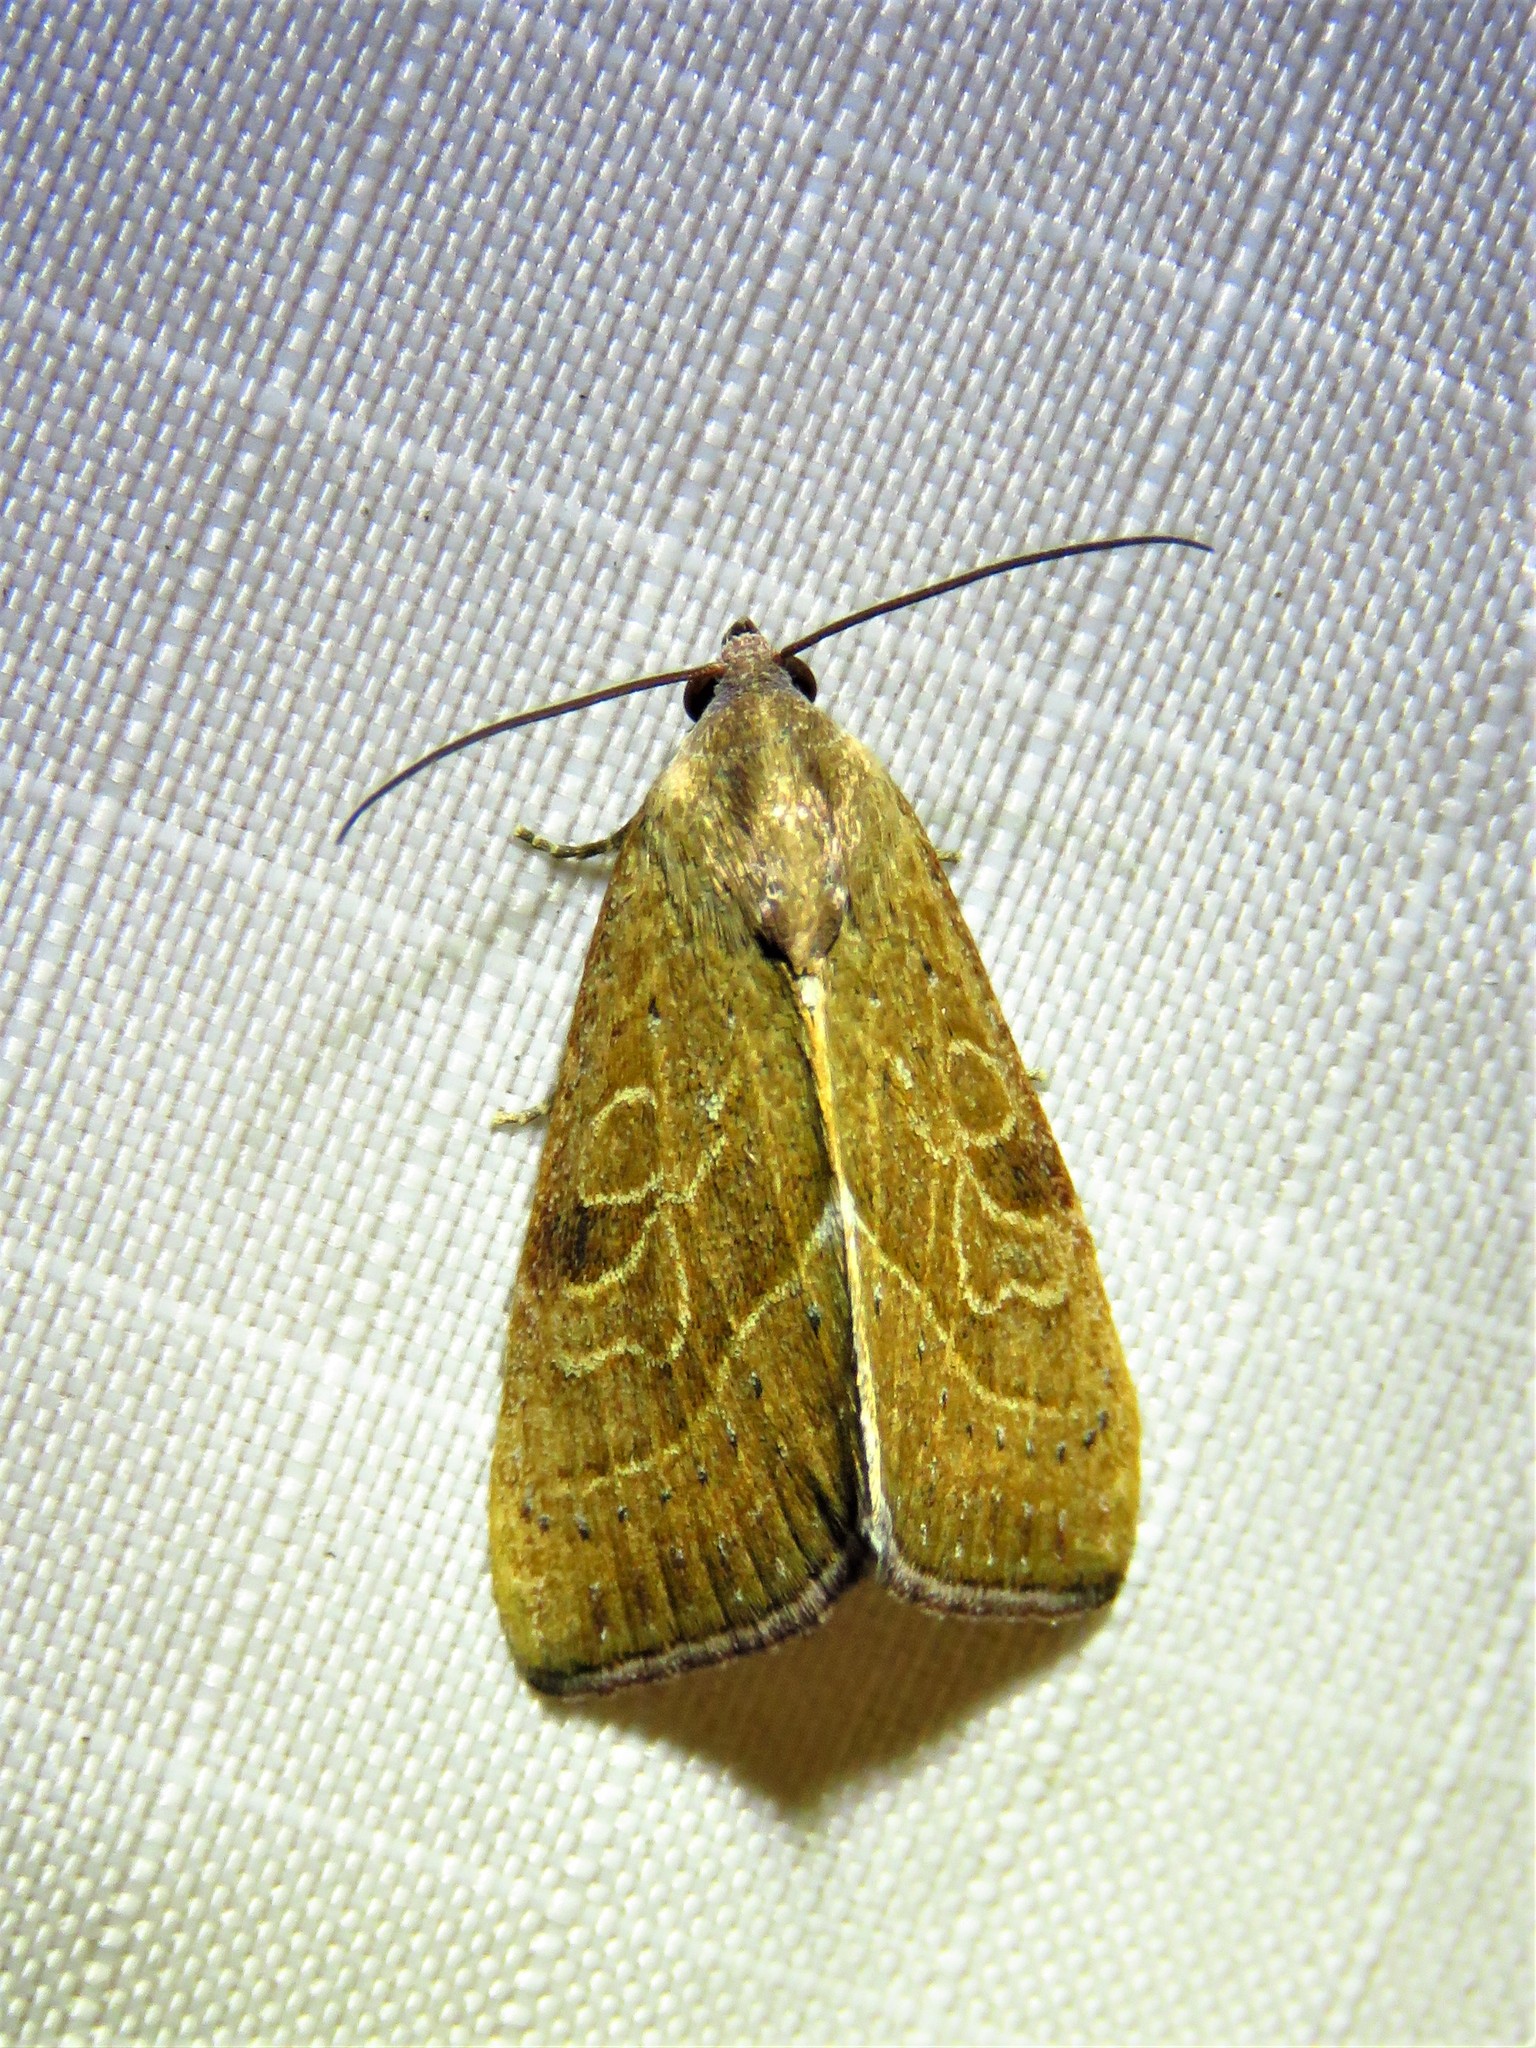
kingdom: Animalia
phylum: Arthropoda
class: Insecta
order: Lepidoptera
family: Noctuidae
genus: Galgula
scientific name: Galgula partita
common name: Wedgeling
